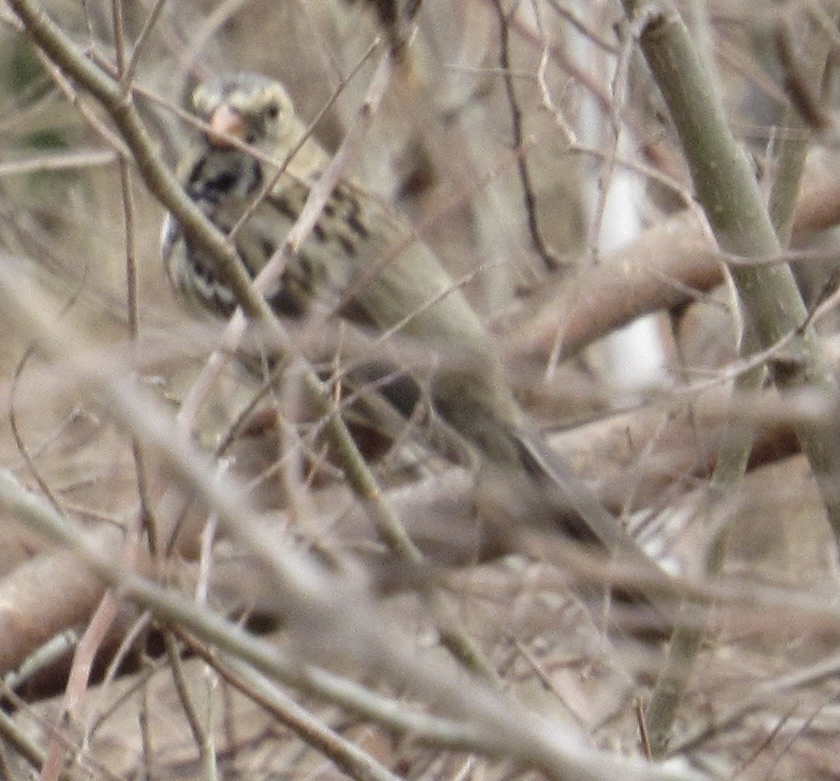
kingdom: Animalia
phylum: Chordata
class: Aves
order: Passeriformes
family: Passerellidae
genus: Zonotrichia
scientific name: Zonotrichia querula
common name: Harris's sparrow
